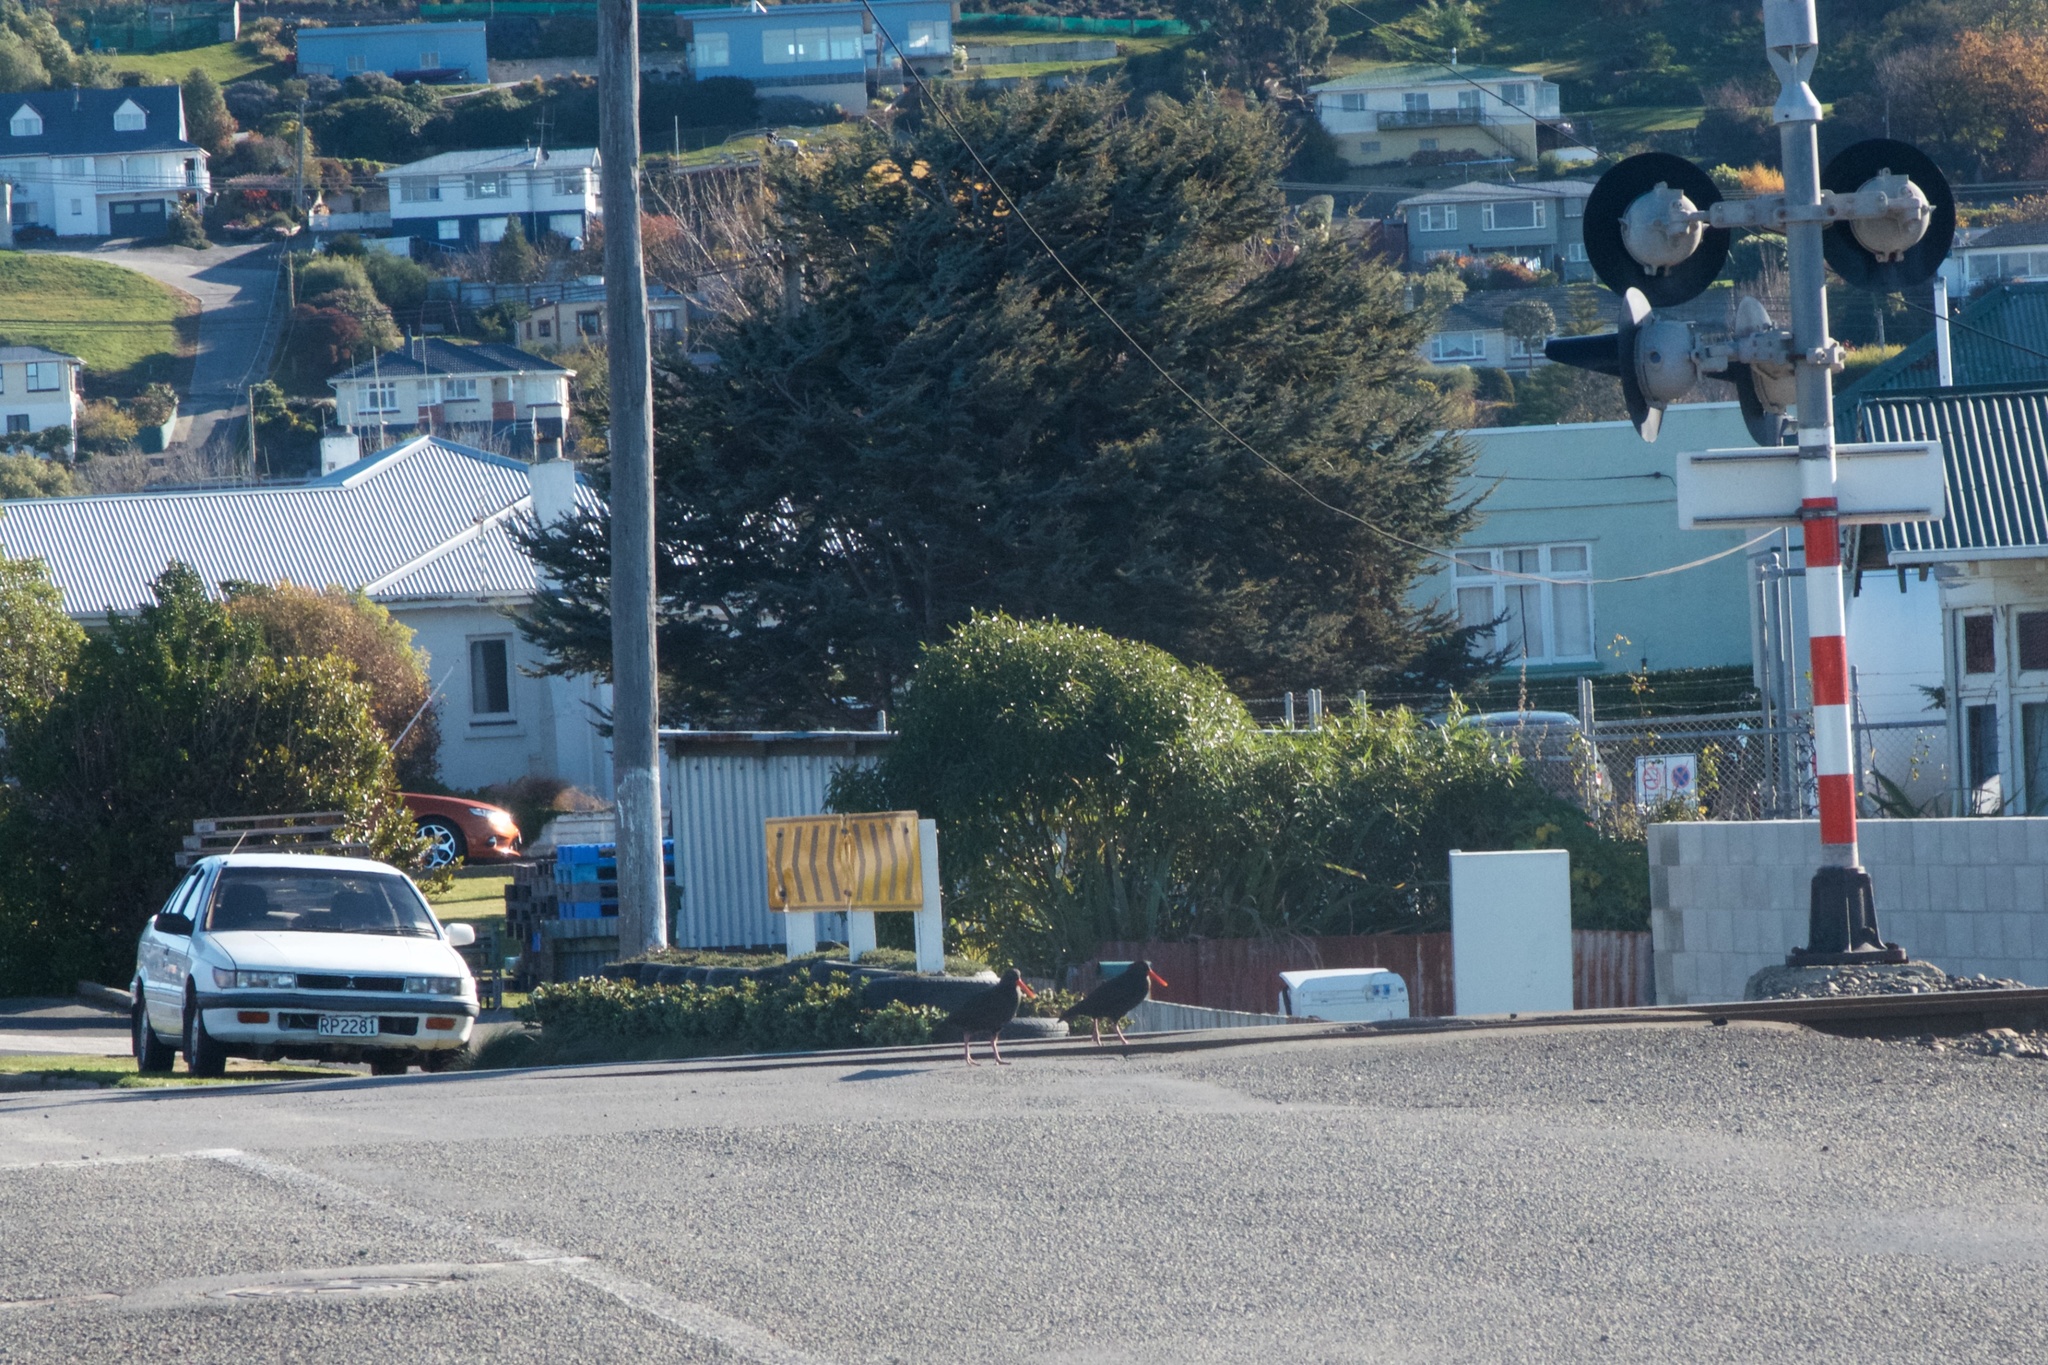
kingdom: Animalia
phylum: Chordata
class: Aves
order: Charadriiformes
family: Haematopodidae
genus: Haematopus
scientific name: Haematopus unicolor
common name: Variable oystercatcher
